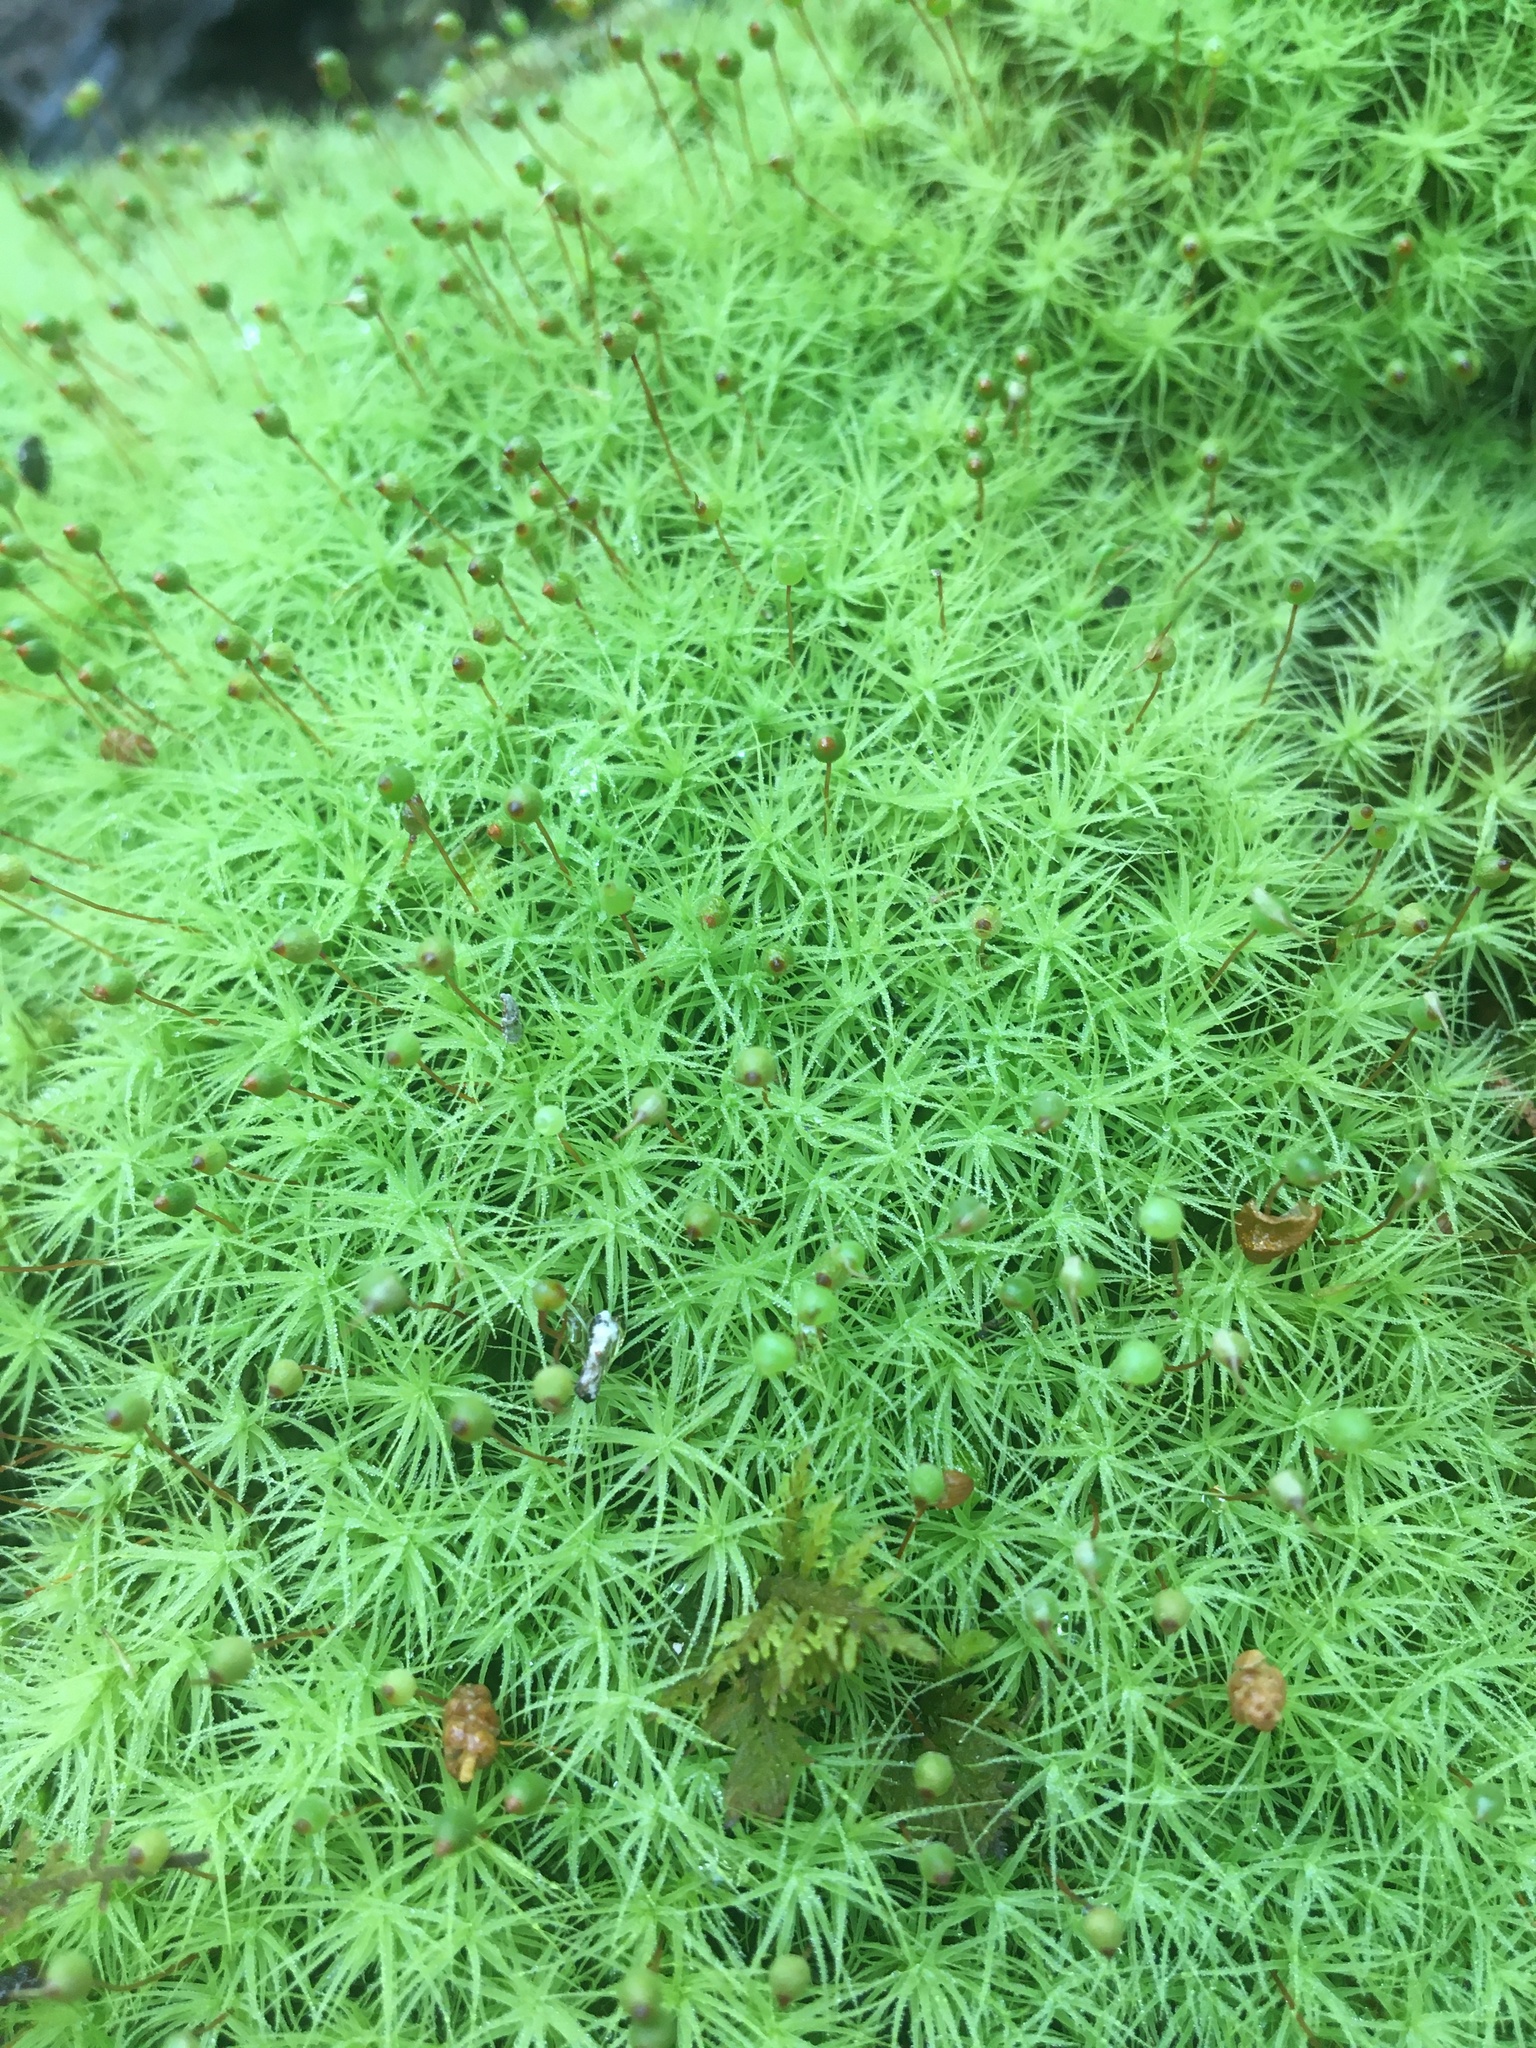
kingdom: Plantae
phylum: Bryophyta
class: Bryopsida
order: Bartramiales
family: Bartramiaceae
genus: Bartramia
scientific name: Bartramia ithyphylla
